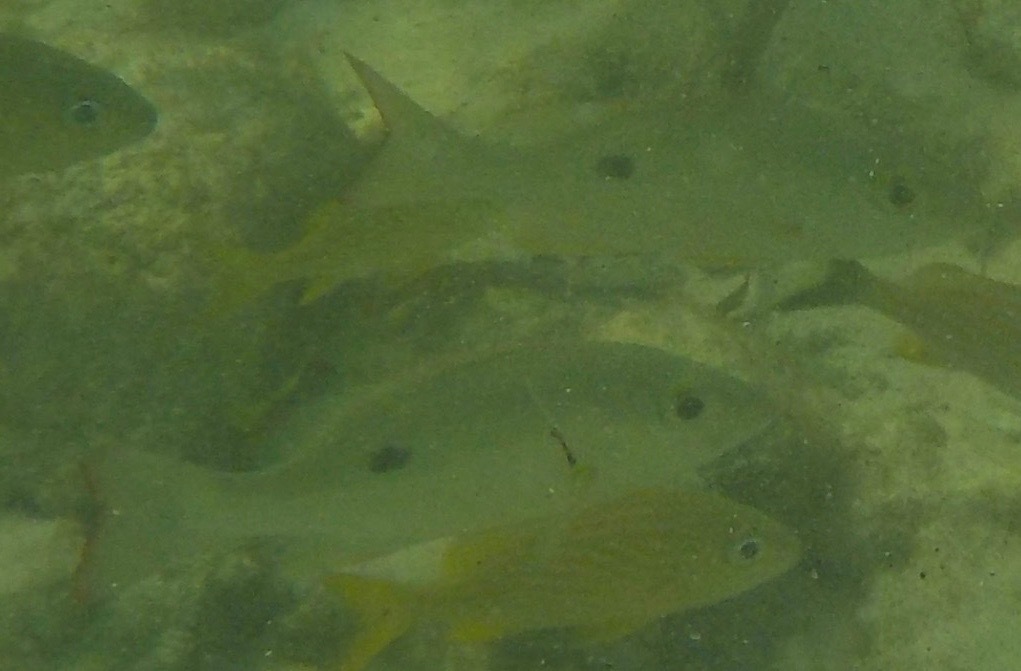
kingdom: Animalia
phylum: Chordata
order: Perciformes
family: Lutjanidae
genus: Lutjanus
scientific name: Lutjanus mahogoni
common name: Spot snapper
